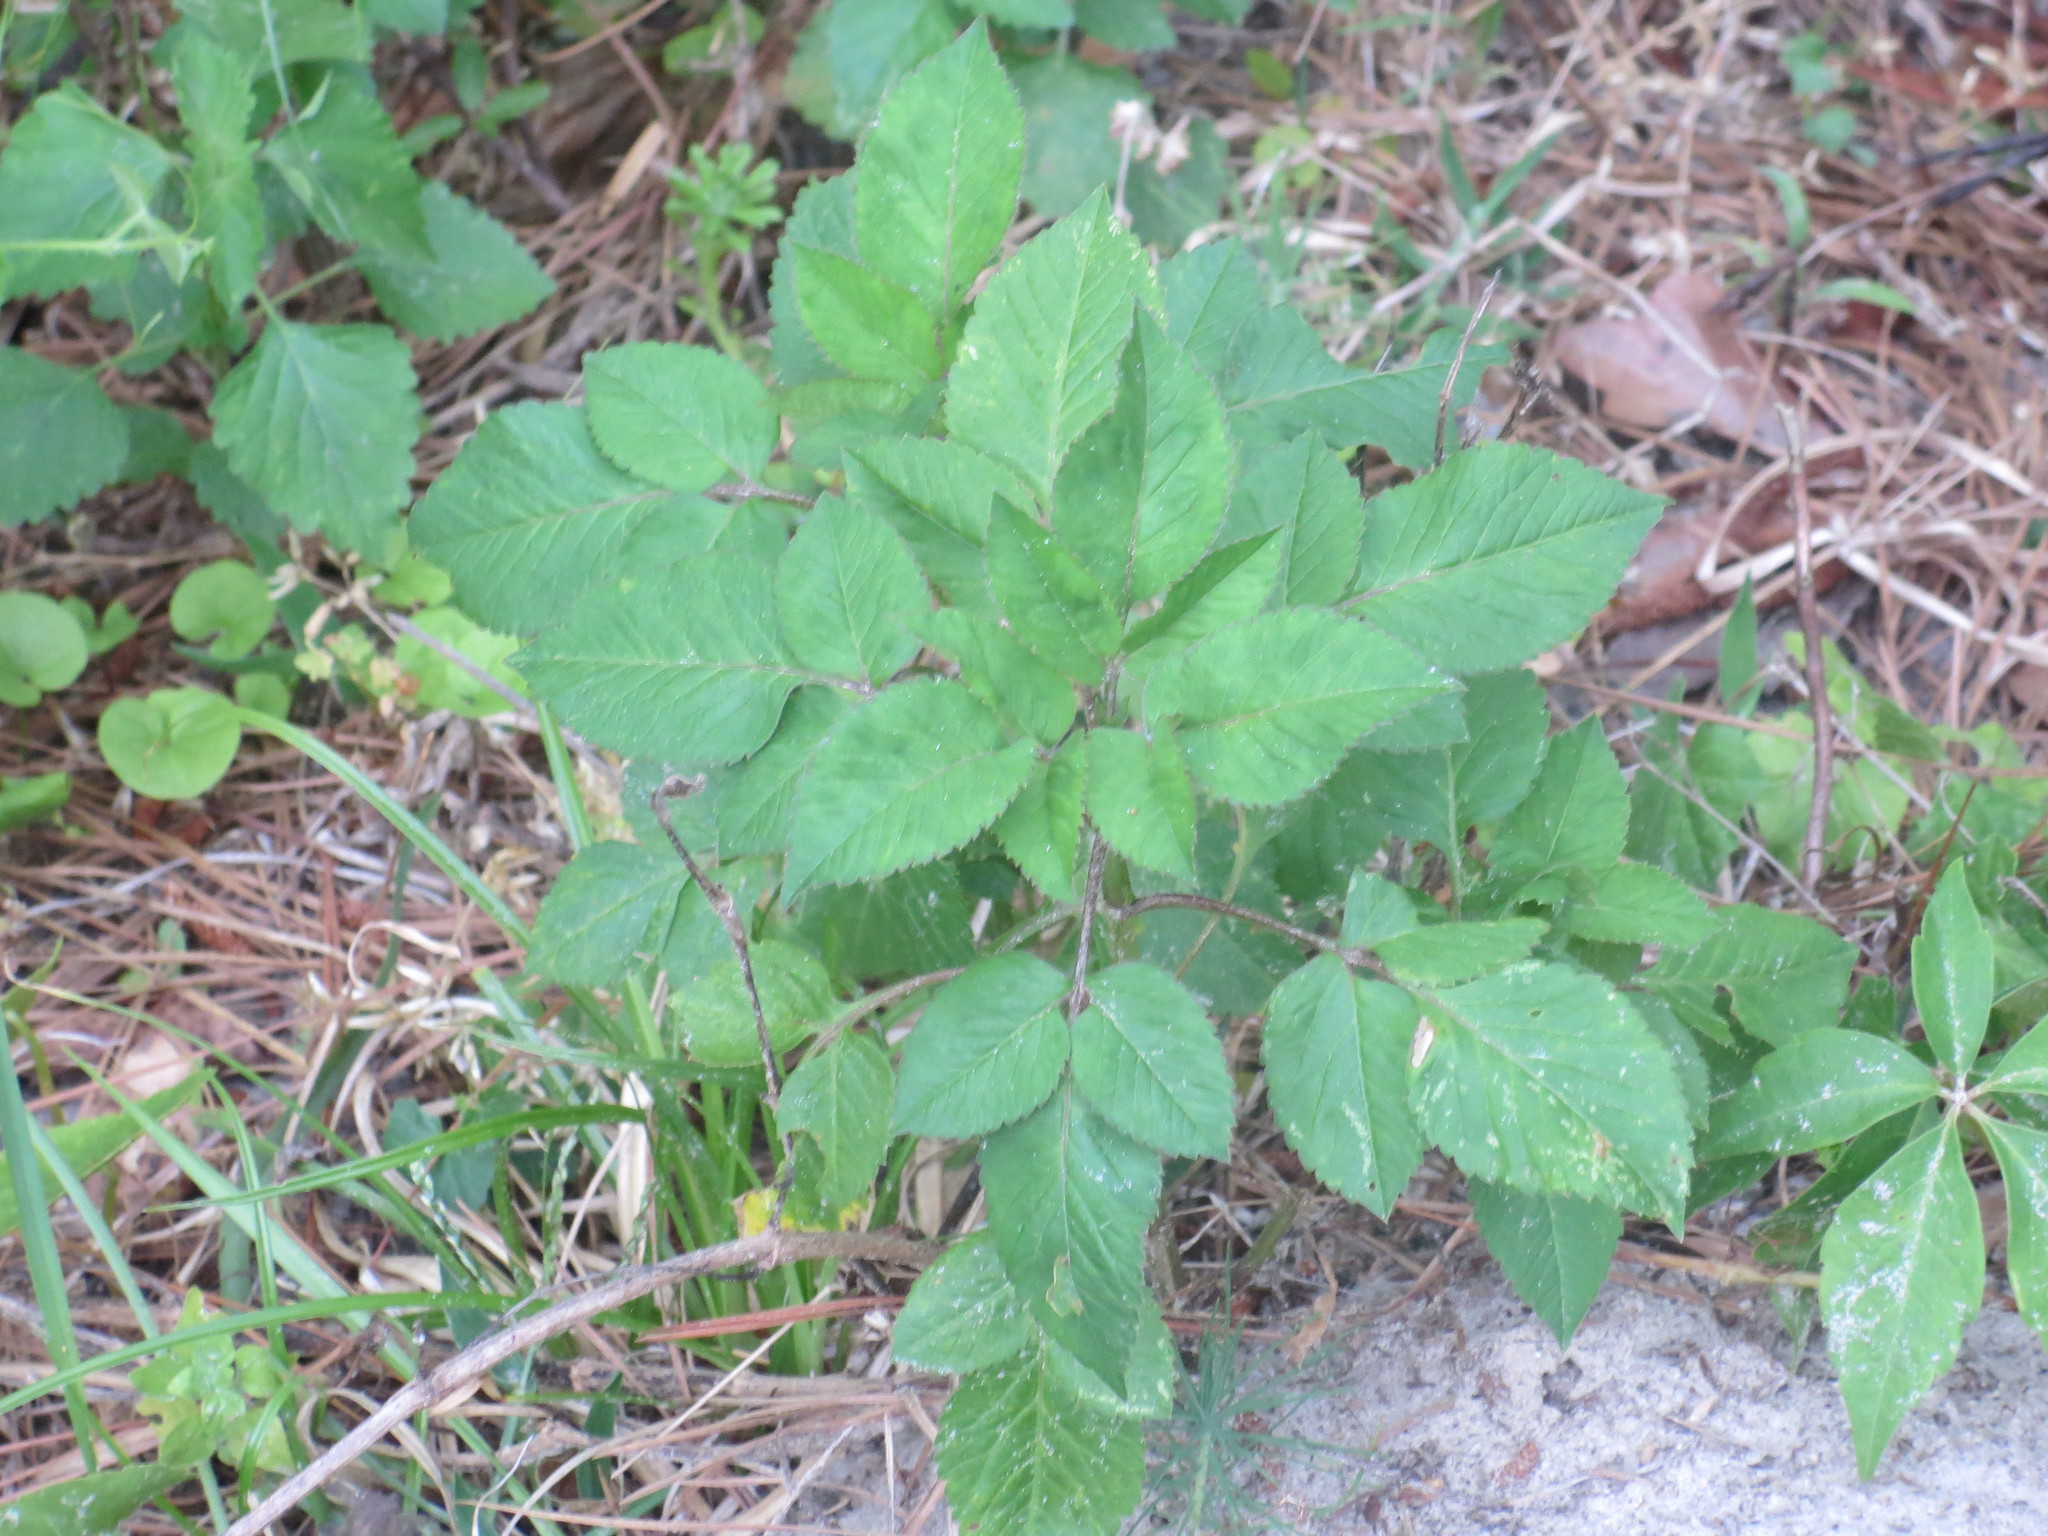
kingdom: Plantae
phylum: Tracheophyta
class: Magnoliopsida
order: Asterales
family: Asteraceae
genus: Bidens
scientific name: Bidens alba
